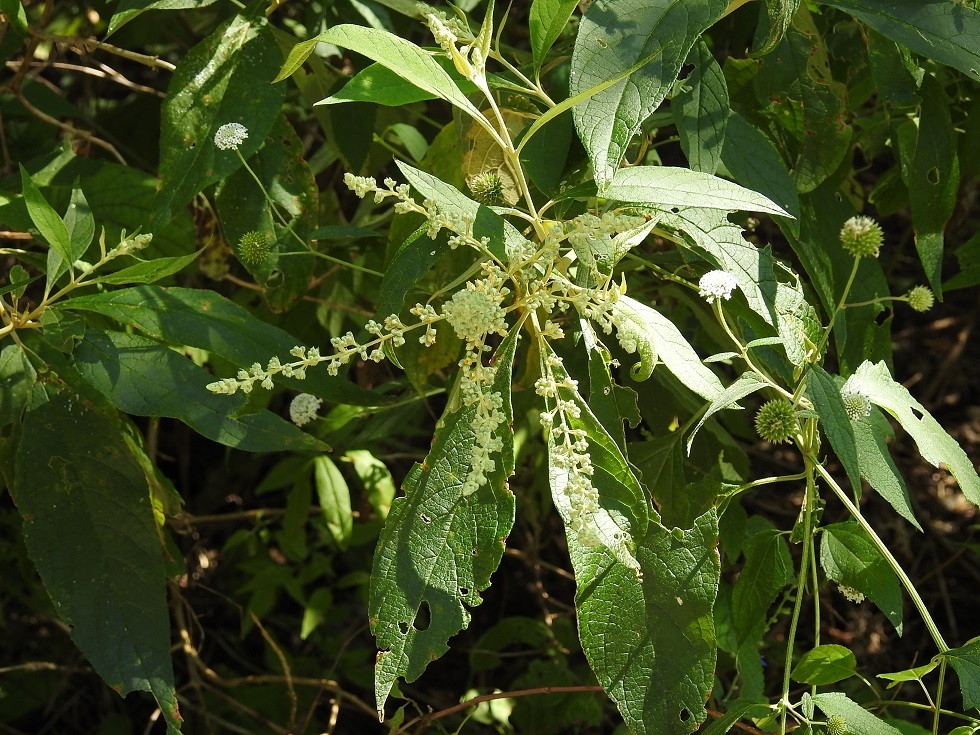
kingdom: Plantae
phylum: Tracheophyta
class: Magnoliopsida
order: Lamiales
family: Scrophulariaceae
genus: Buddleja
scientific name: Buddleja americana
